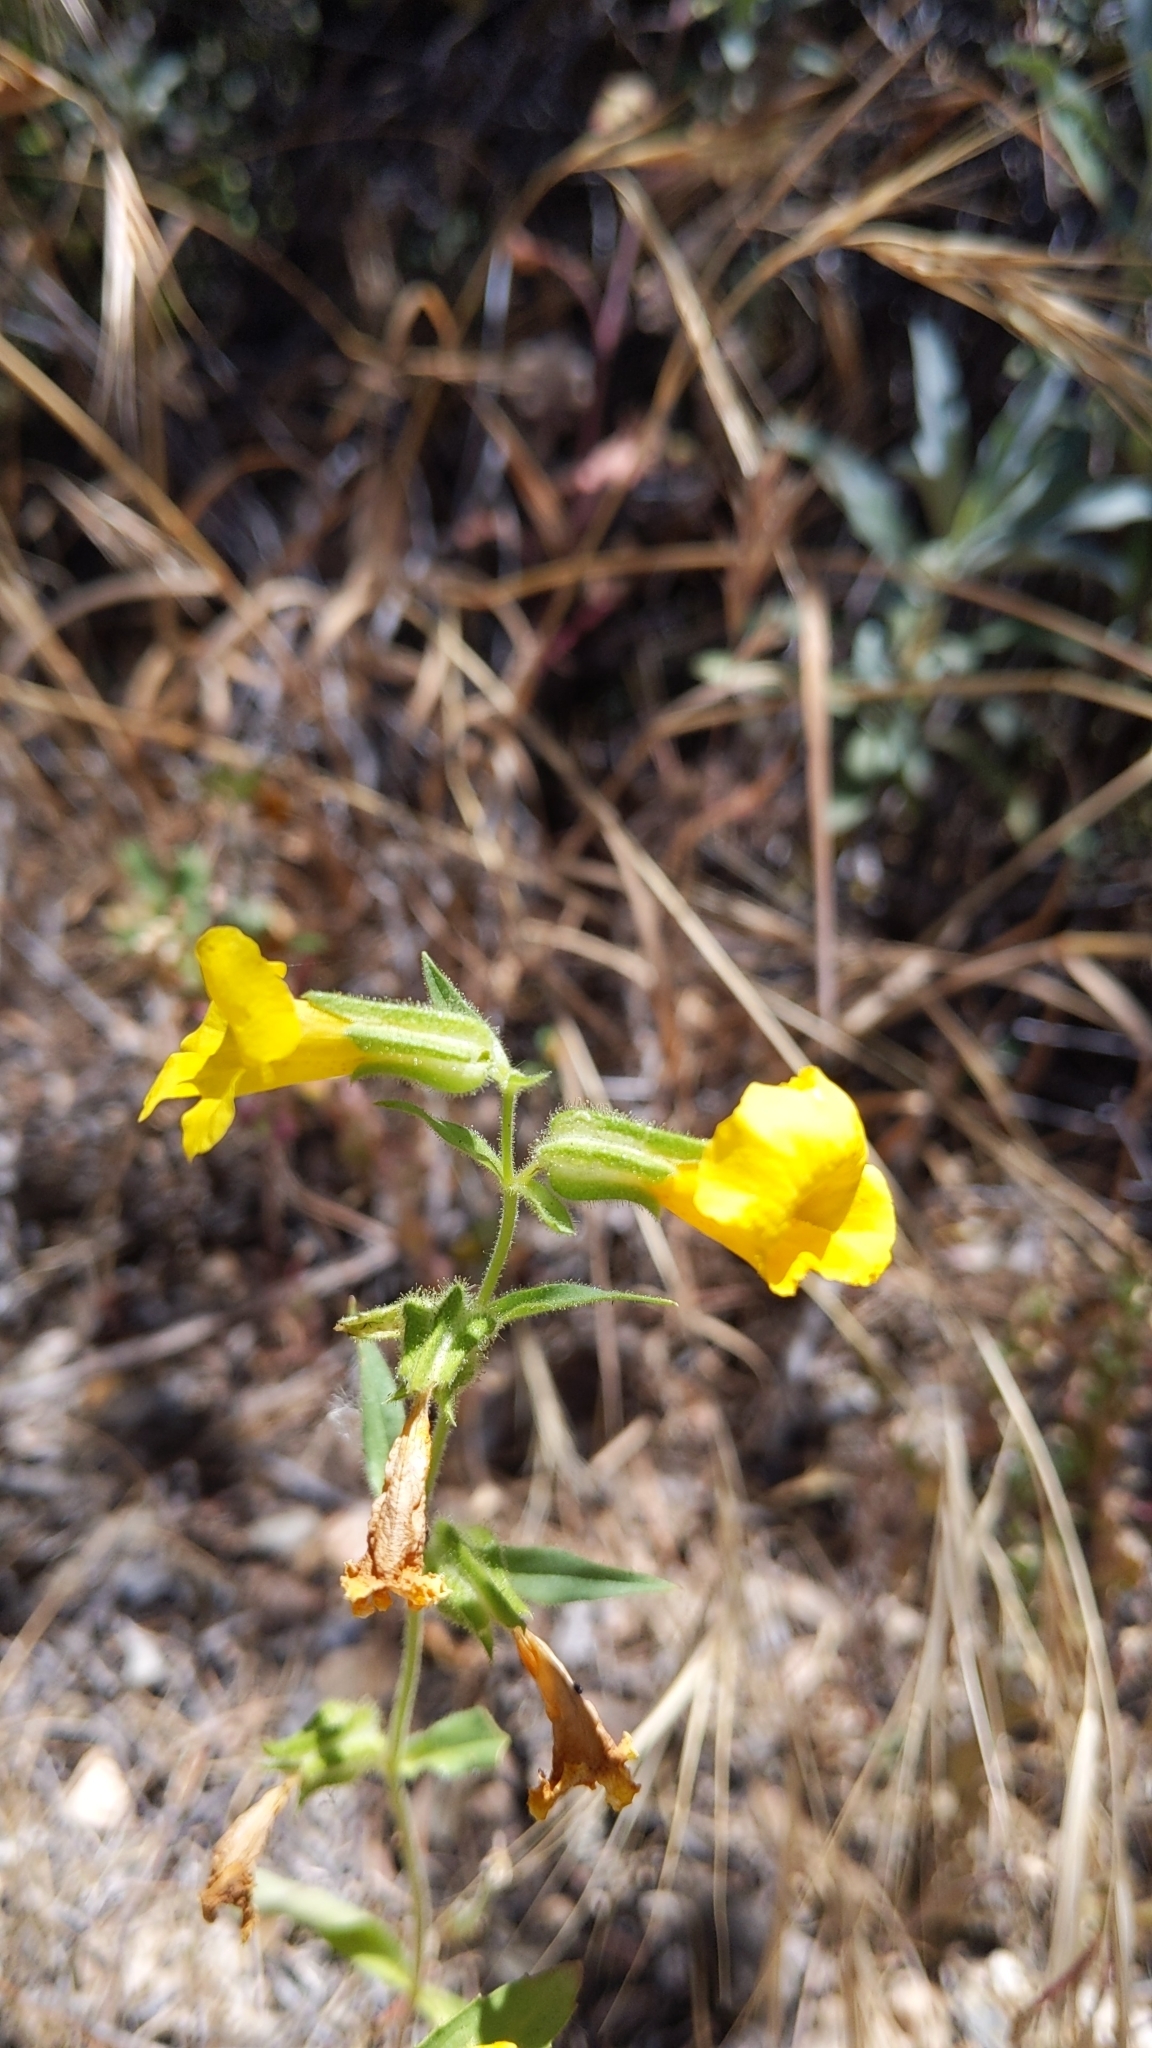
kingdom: Plantae
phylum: Tracheophyta
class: Magnoliopsida
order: Lamiales
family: Phrymaceae
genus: Diplacus
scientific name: Diplacus brevipes
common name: Wide-throat yellow monkey-flower
